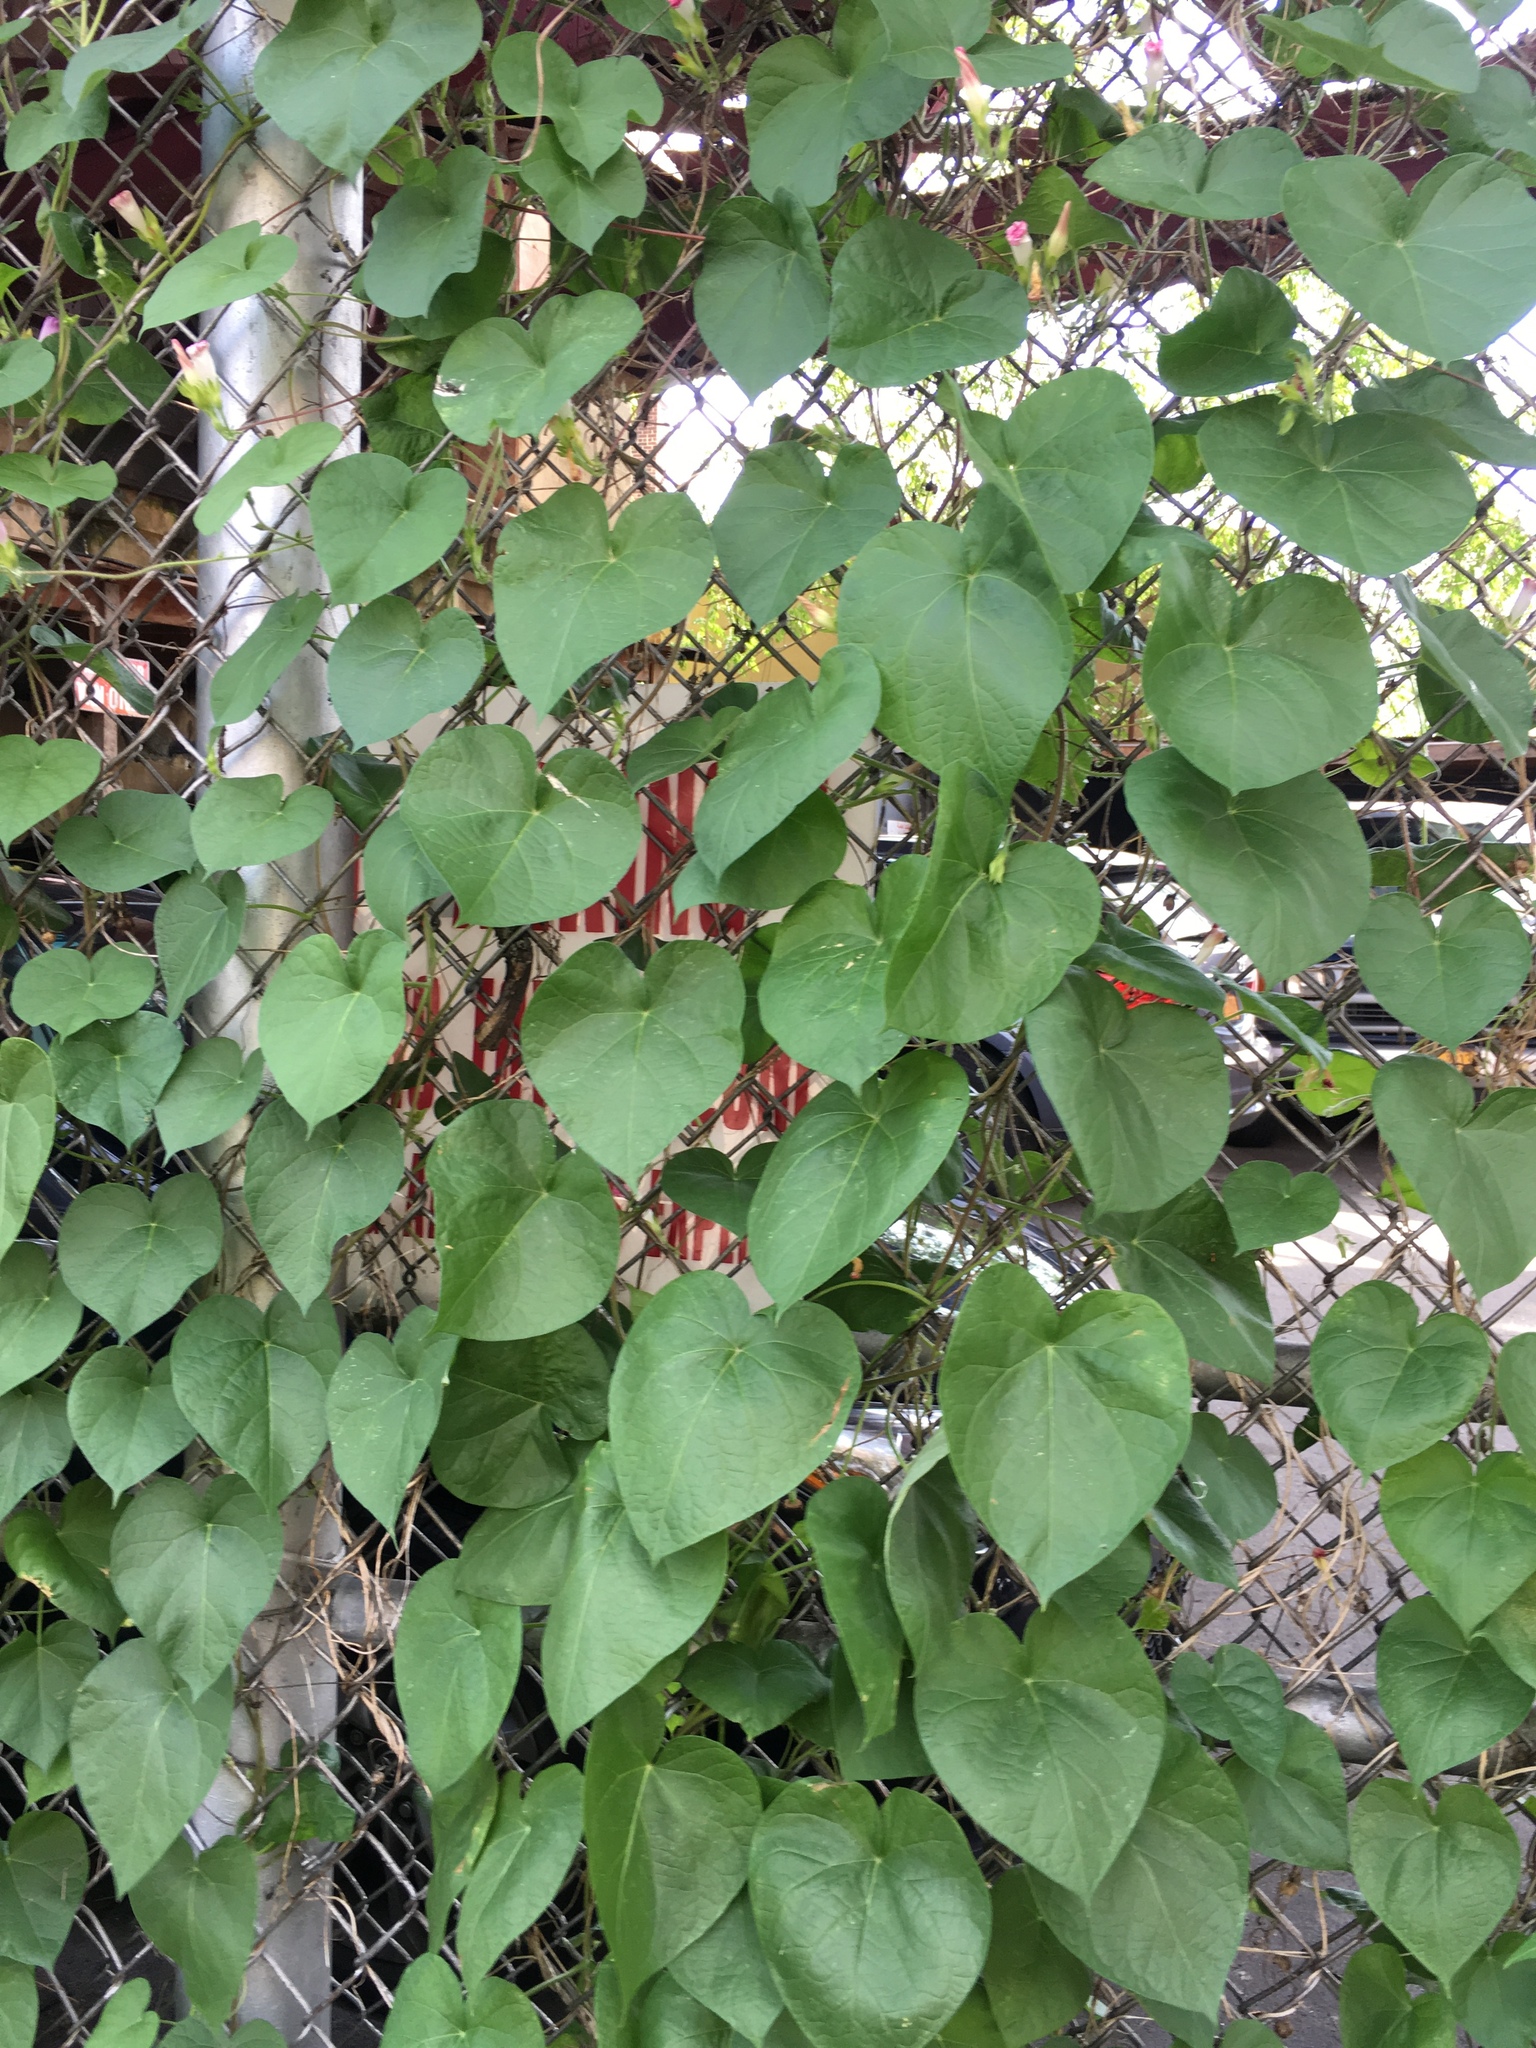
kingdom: Plantae
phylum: Tracheophyta
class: Magnoliopsida
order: Solanales
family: Convolvulaceae
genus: Ipomoea
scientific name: Ipomoea purpurea
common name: Common morning-glory
